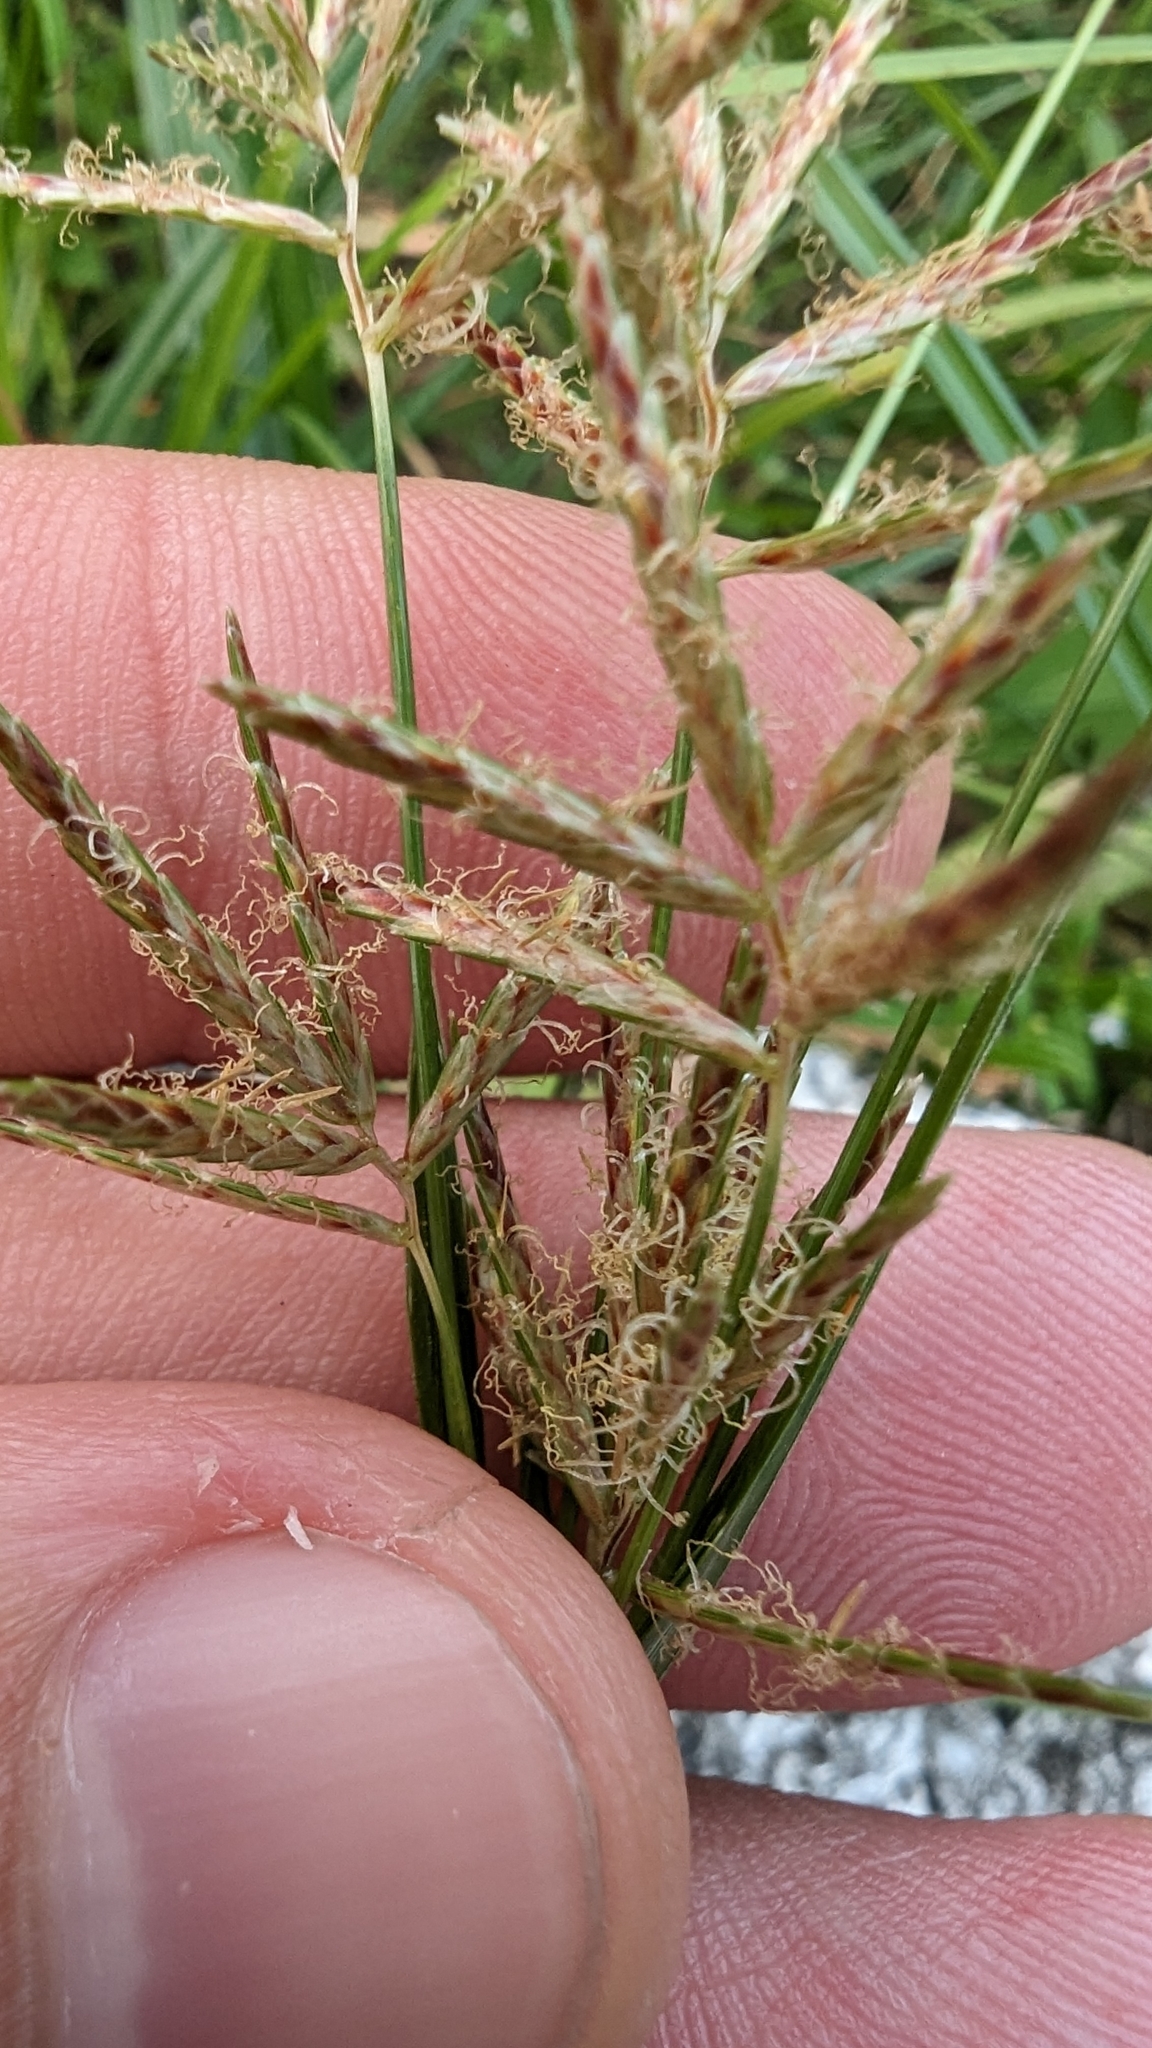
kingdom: Plantae
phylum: Tracheophyta
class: Liliopsida
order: Poales
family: Cyperaceae
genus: Cyperus
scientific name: Cyperus rotundus
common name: Nutgrass
